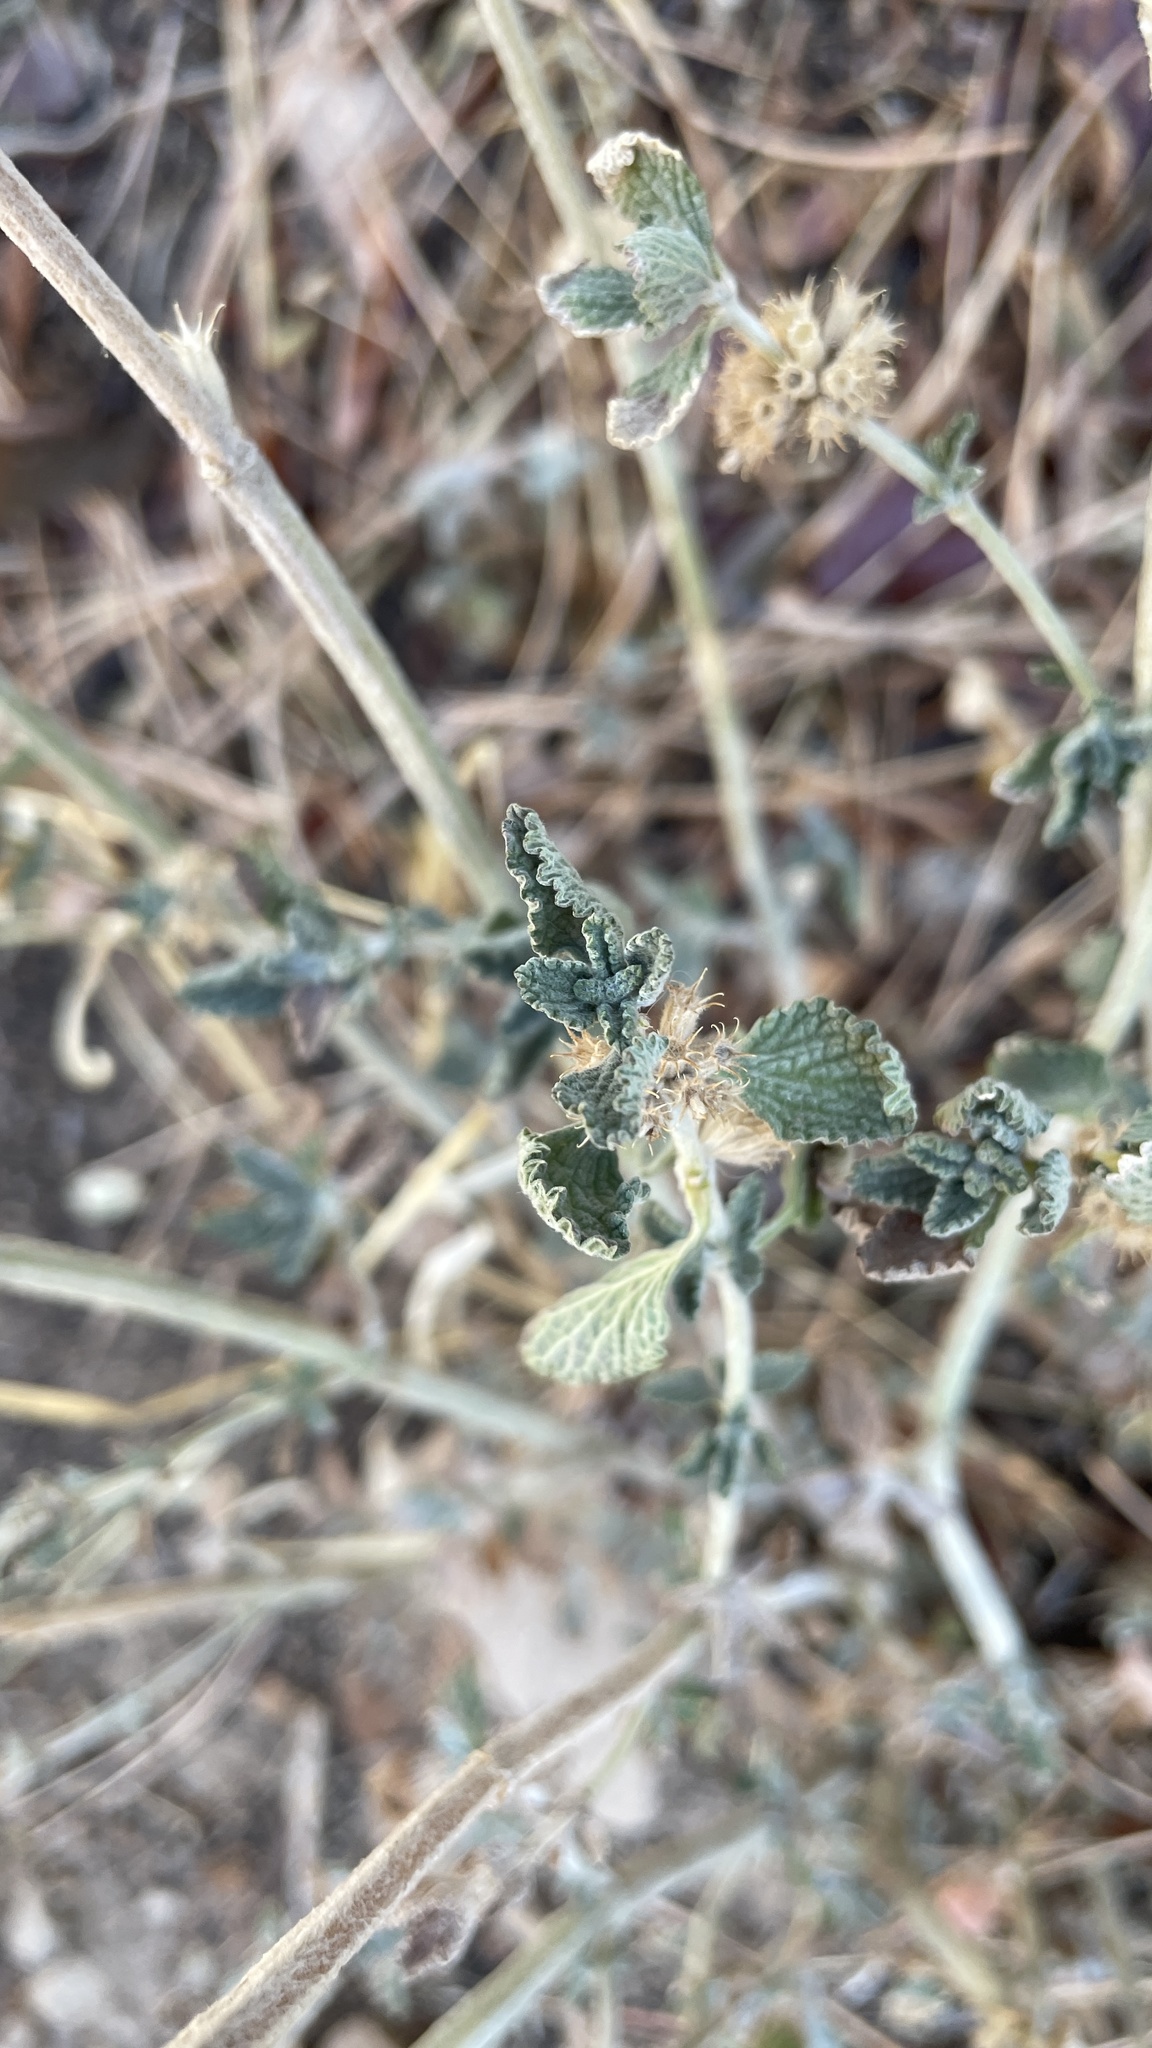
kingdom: Plantae
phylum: Tracheophyta
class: Magnoliopsida
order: Lamiales
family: Lamiaceae
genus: Marrubium
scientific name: Marrubium vulgare
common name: Horehound
